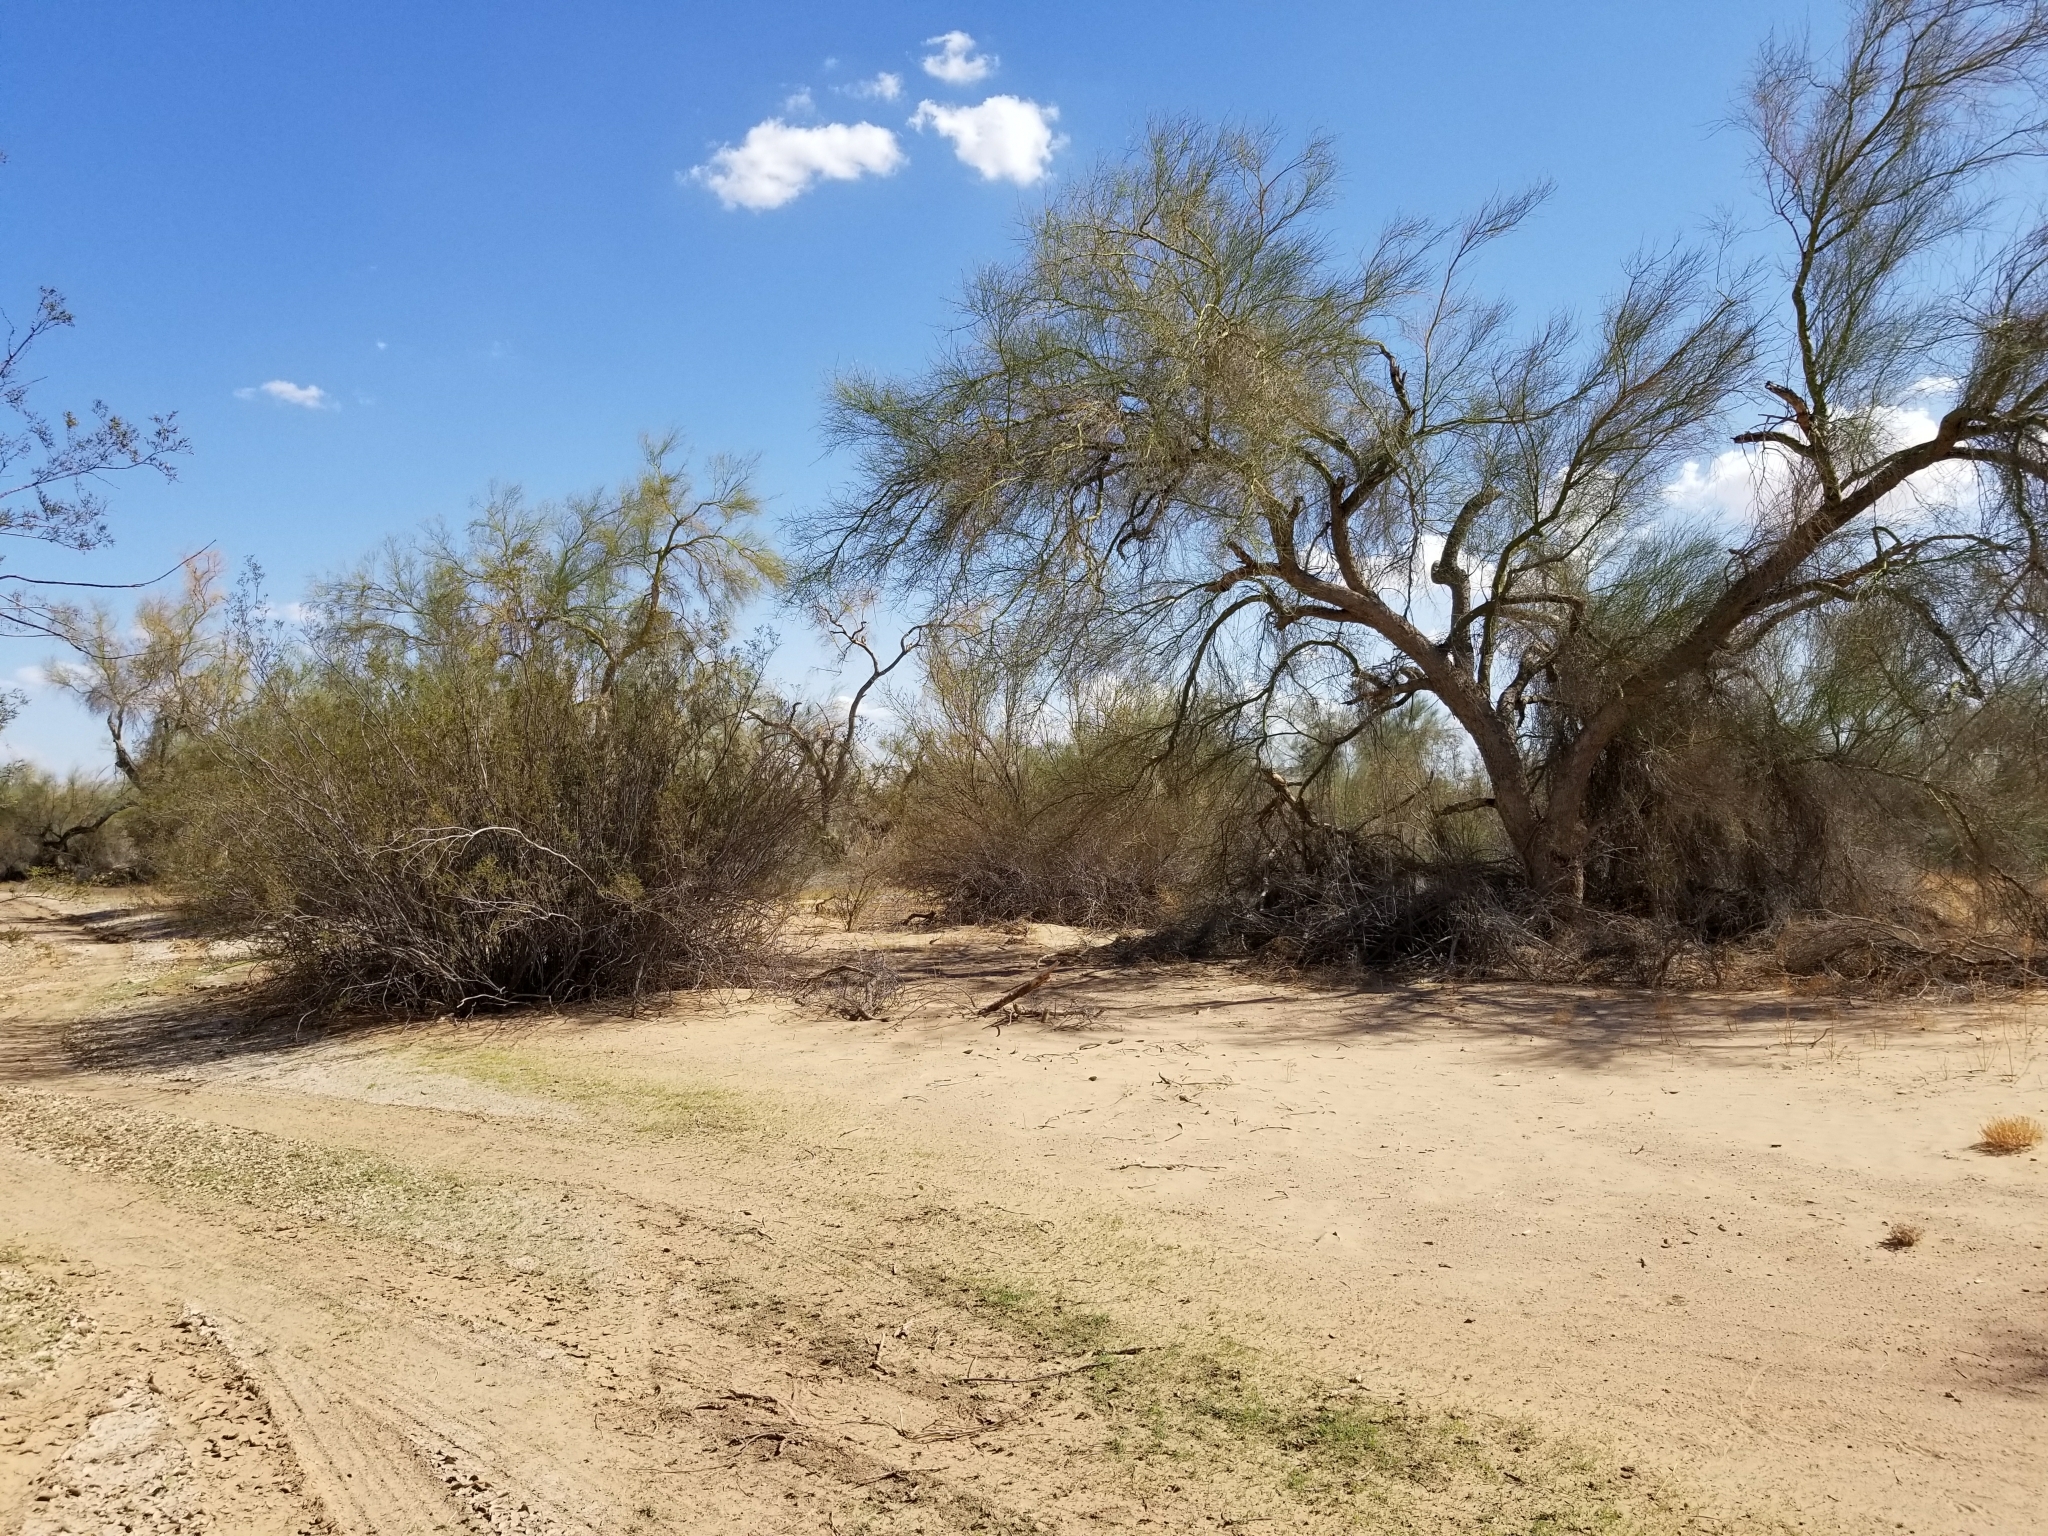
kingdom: Plantae
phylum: Tracheophyta
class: Magnoliopsida
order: Fabales
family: Fabaceae
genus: Parkinsonia
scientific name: Parkinsonia florida
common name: Blue paloverde
